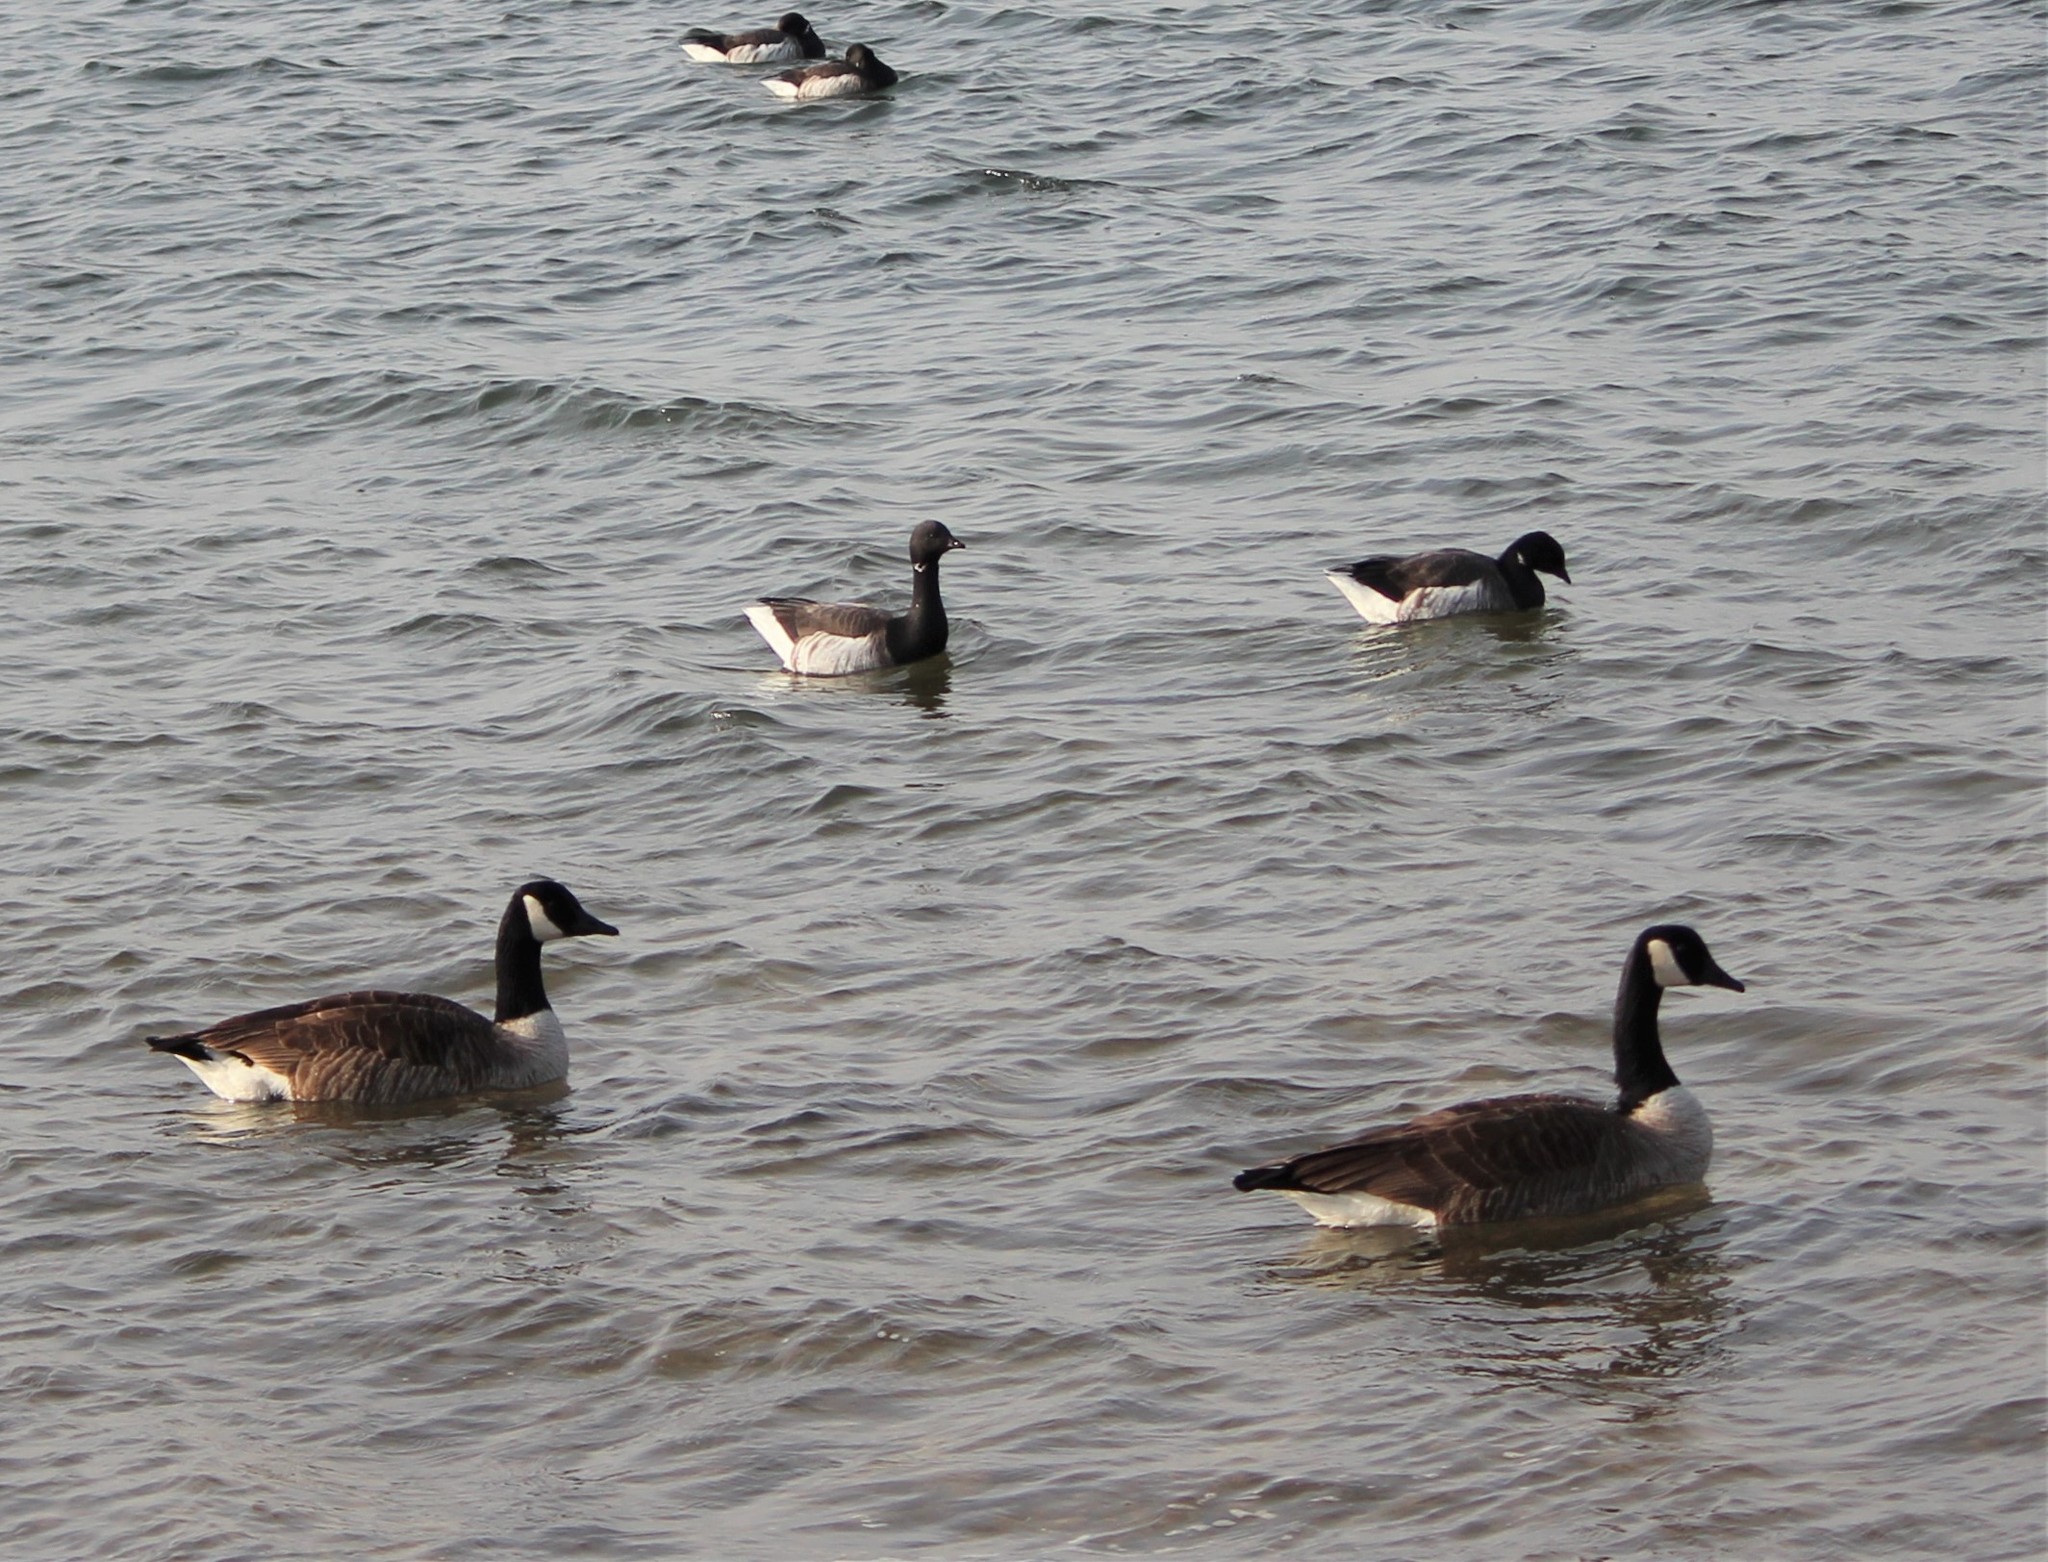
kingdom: Animalia
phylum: Chordata
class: Aves
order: Anseriformes
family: Anatidae
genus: Branta
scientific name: Branta canadensis
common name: Canada goose
